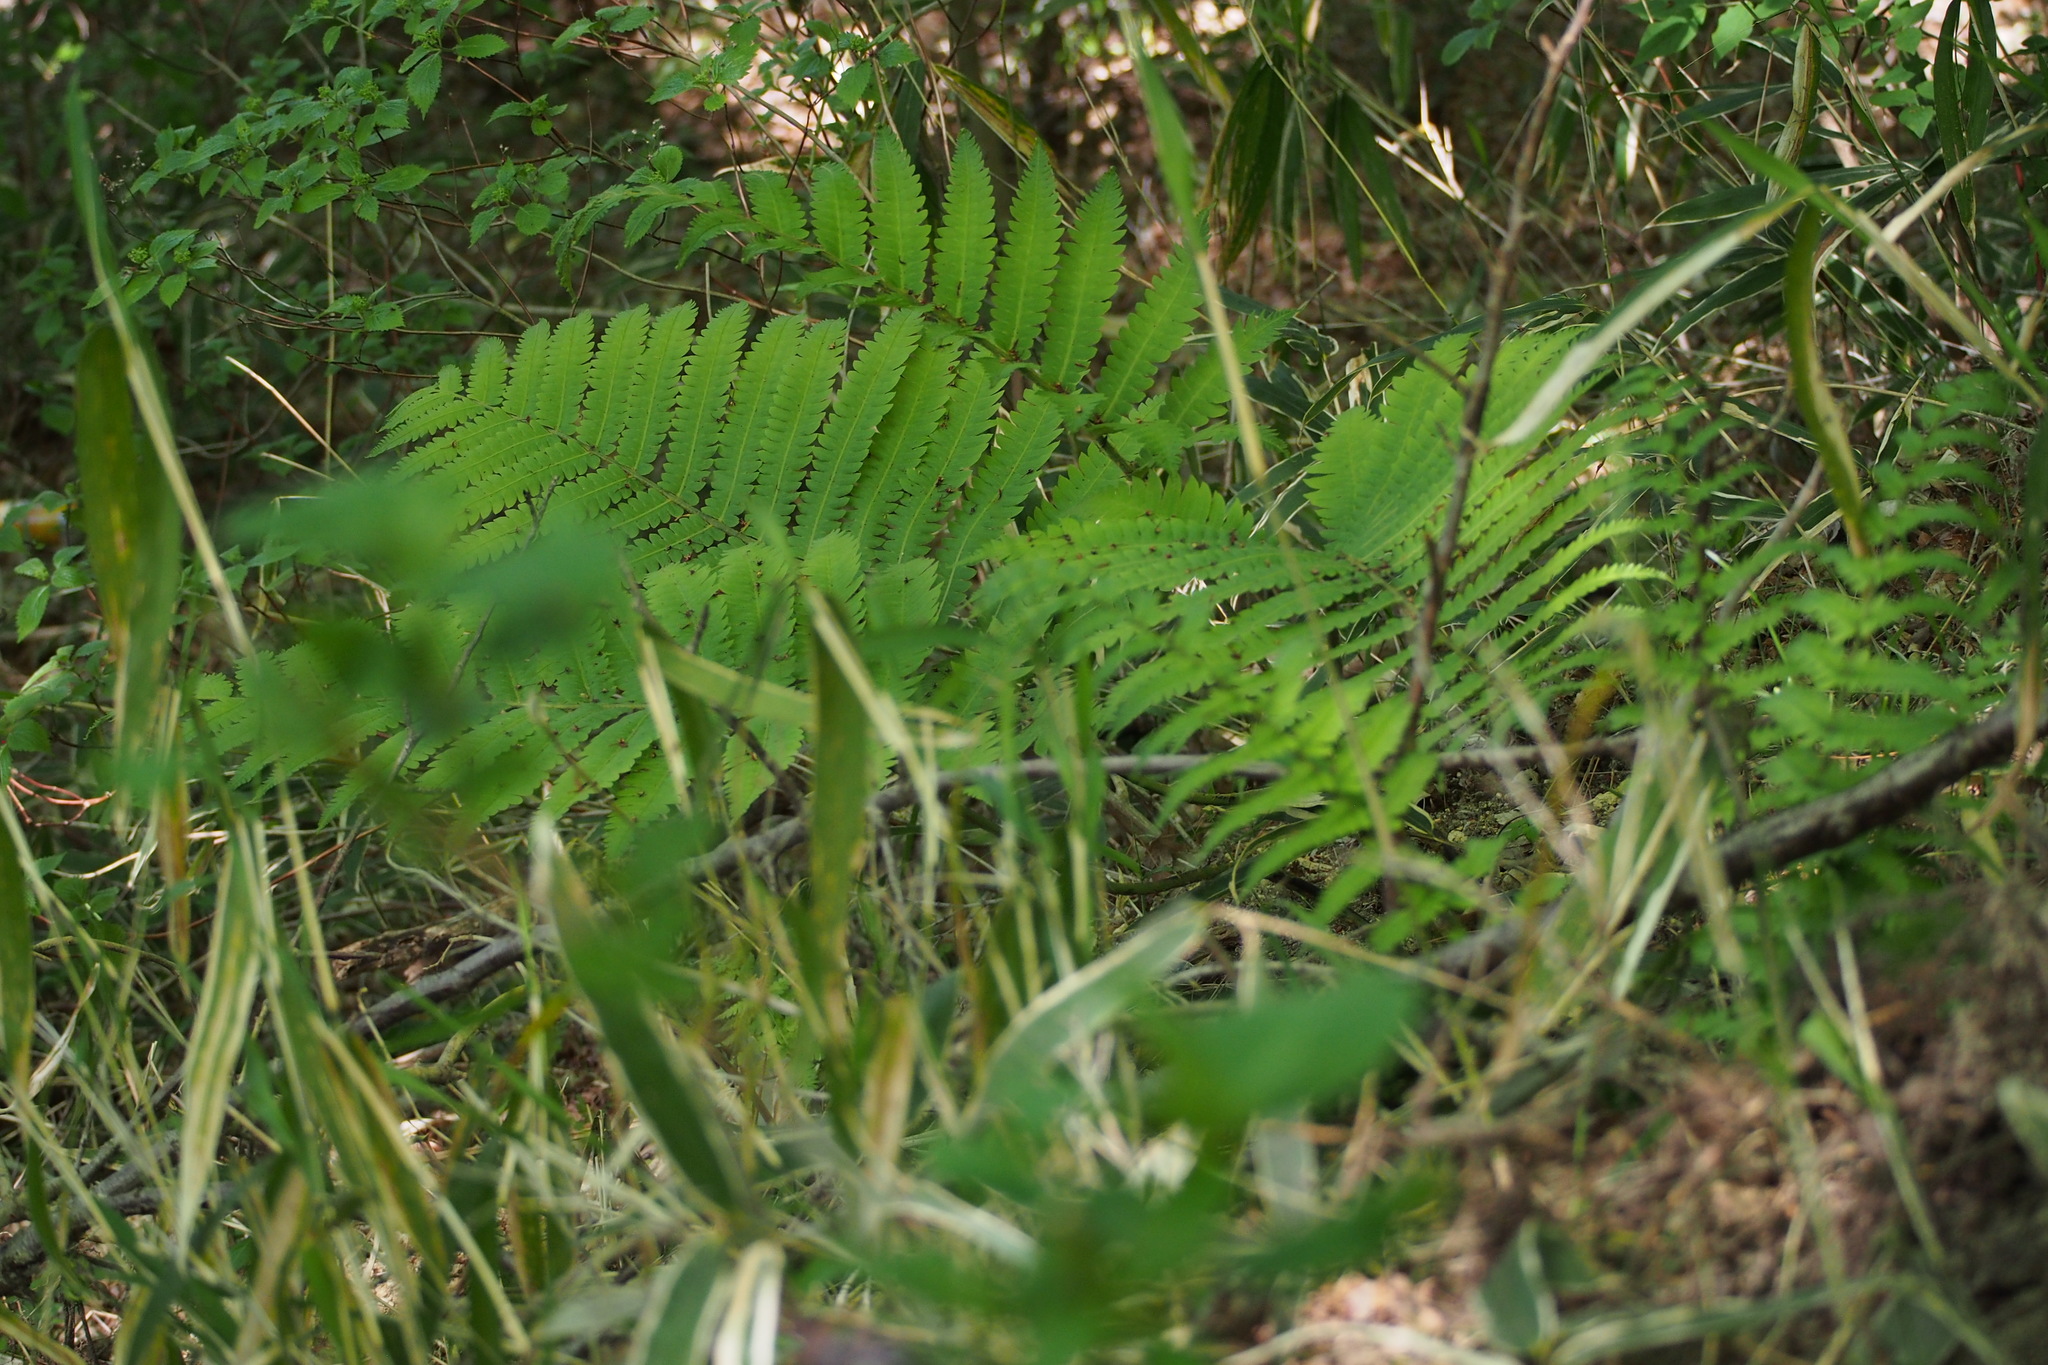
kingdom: Plantae
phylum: Tracheophyta
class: Polypodiopsida
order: Polypodiales
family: Onocleaceae
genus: Pentarhizidium
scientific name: Pentarhizidium orientale
